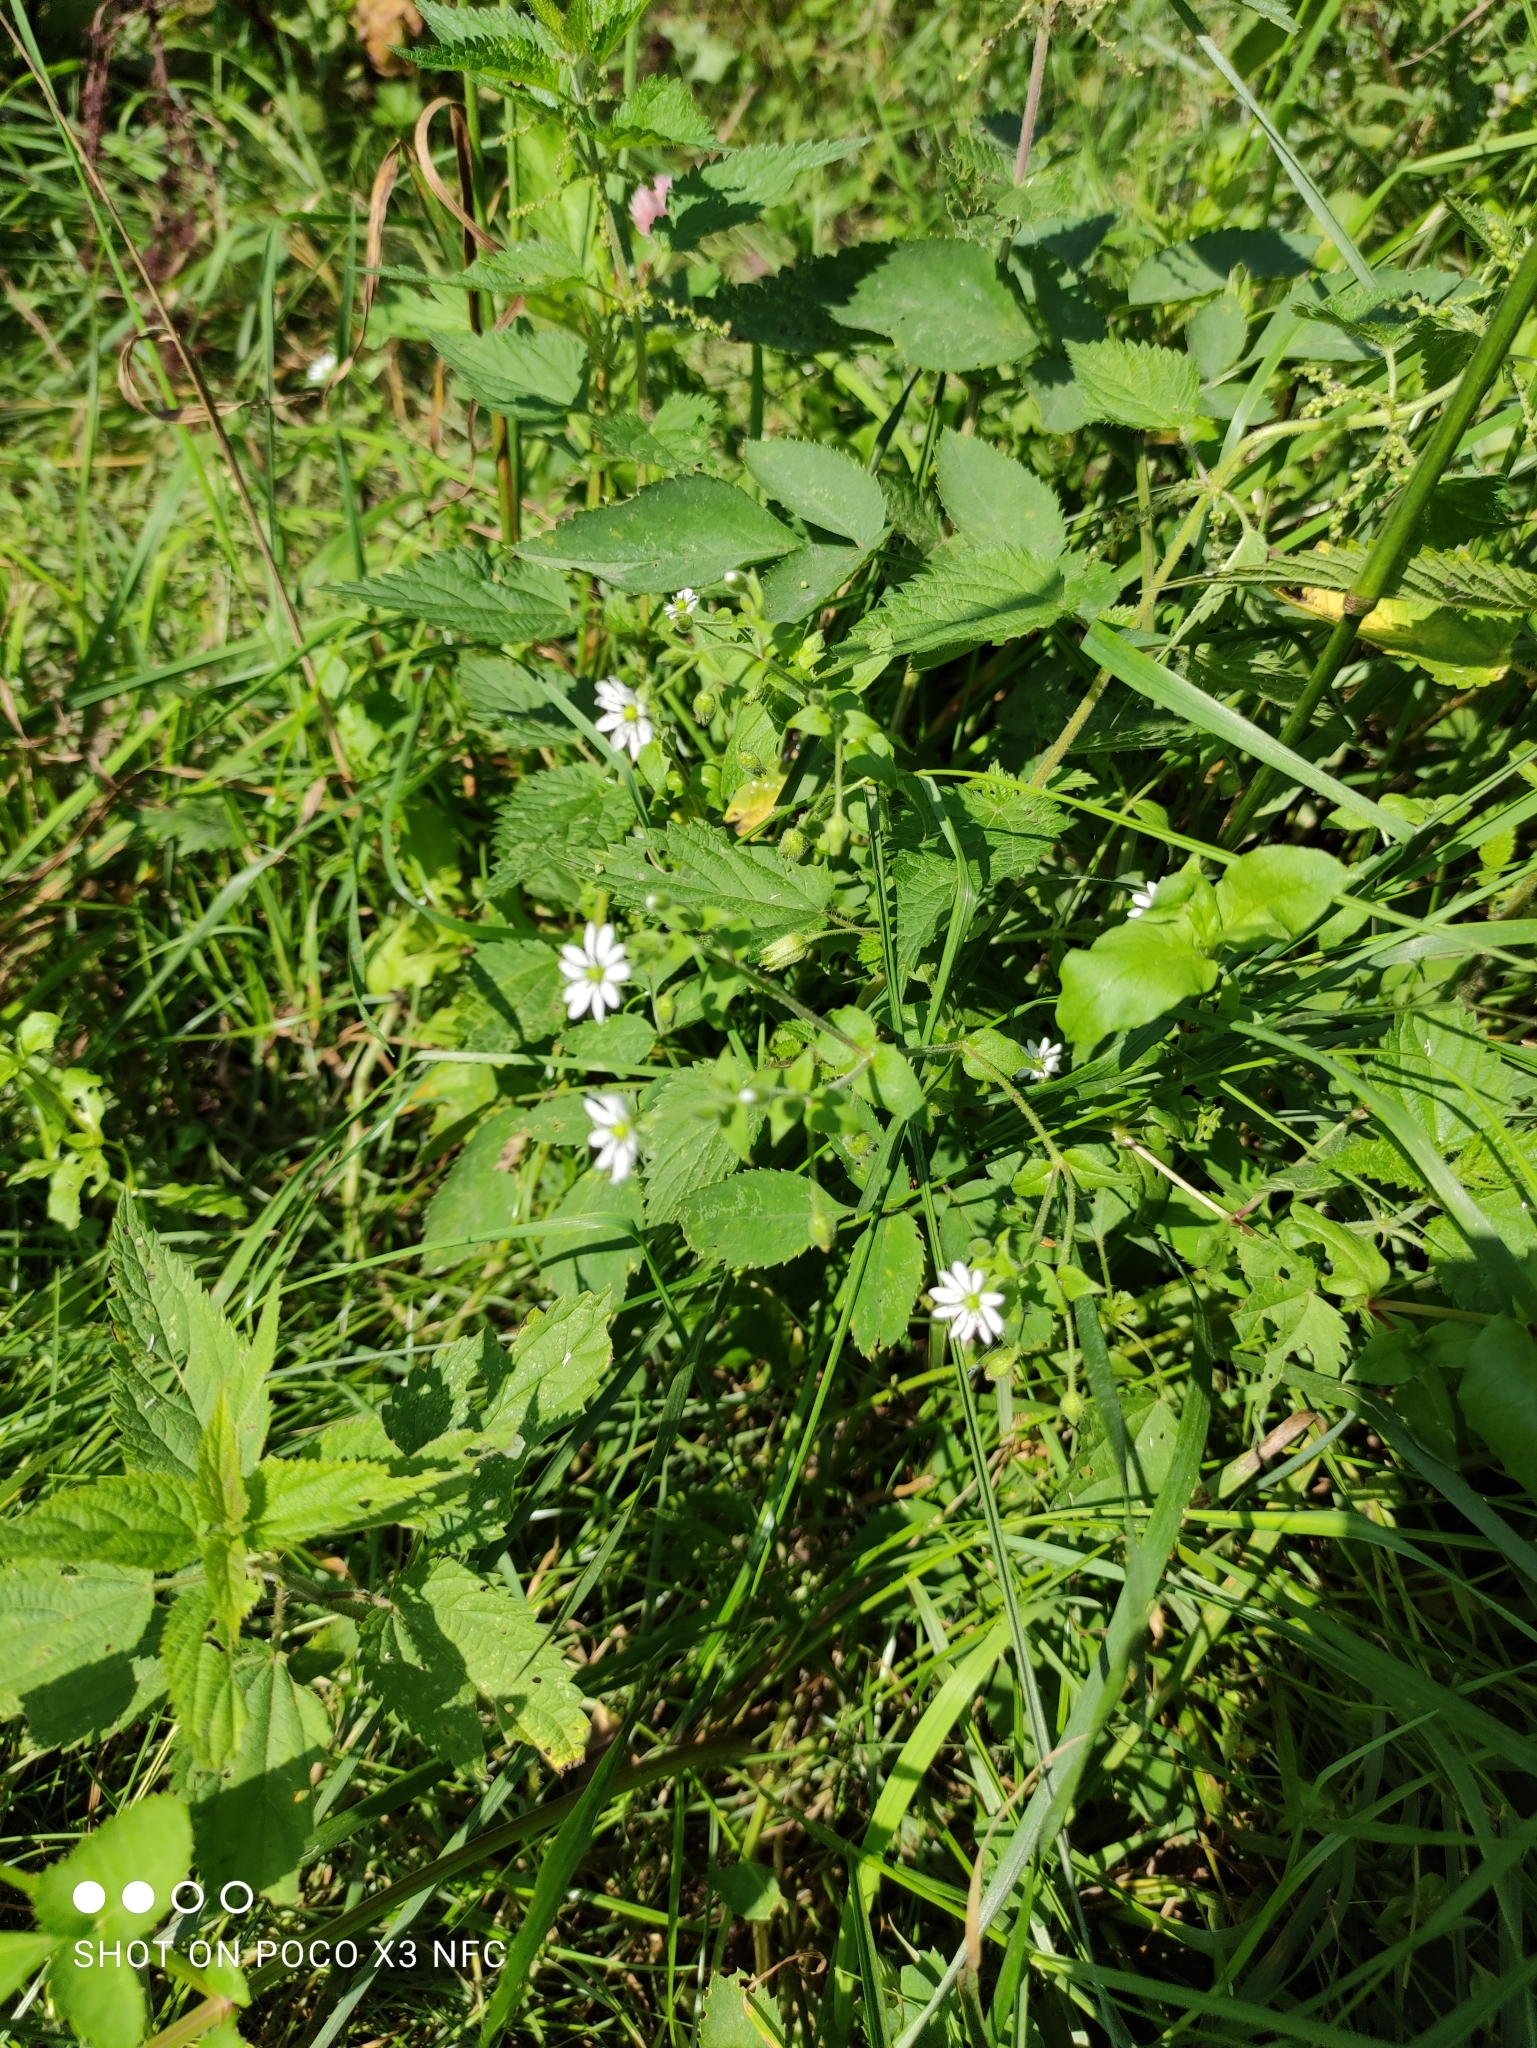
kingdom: Plantae
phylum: Tracheophyta
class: Magnoliopsida
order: Caryophyllales
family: Caryophyllaceae
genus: Stellaria
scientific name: Stellaria aquatica
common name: Water chickweed
